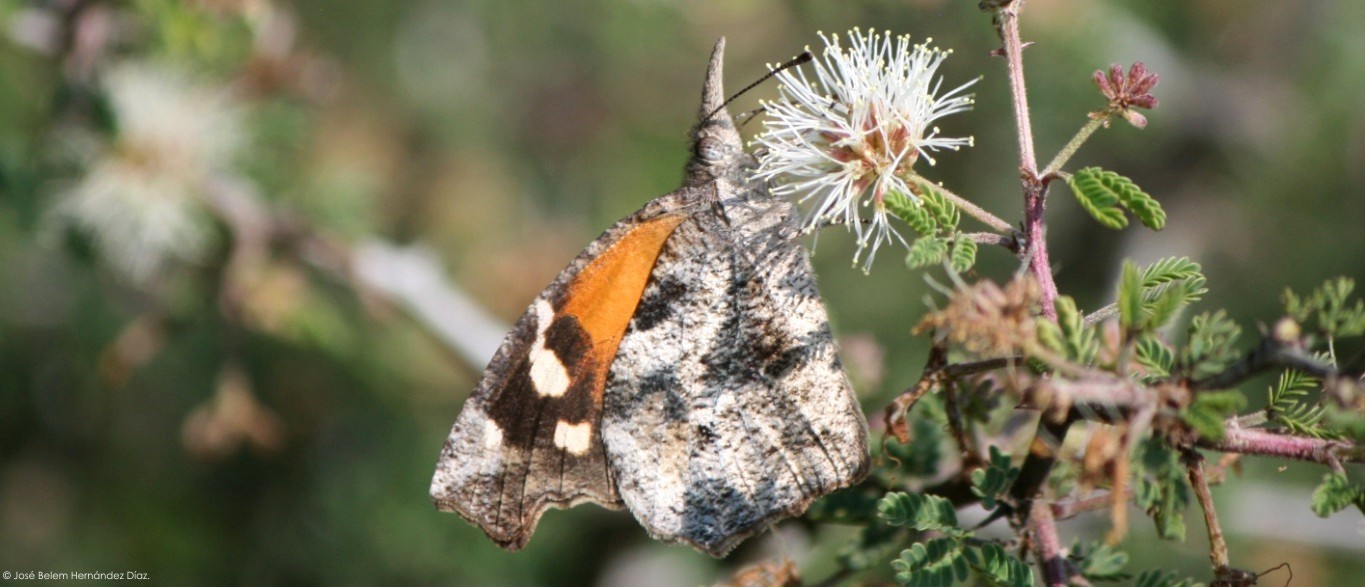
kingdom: Animalia
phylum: Arthropoda
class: Insecta
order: Lepidoptera
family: Nymphalidae
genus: Libytheana
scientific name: Libytheana carinenta
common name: American snout
